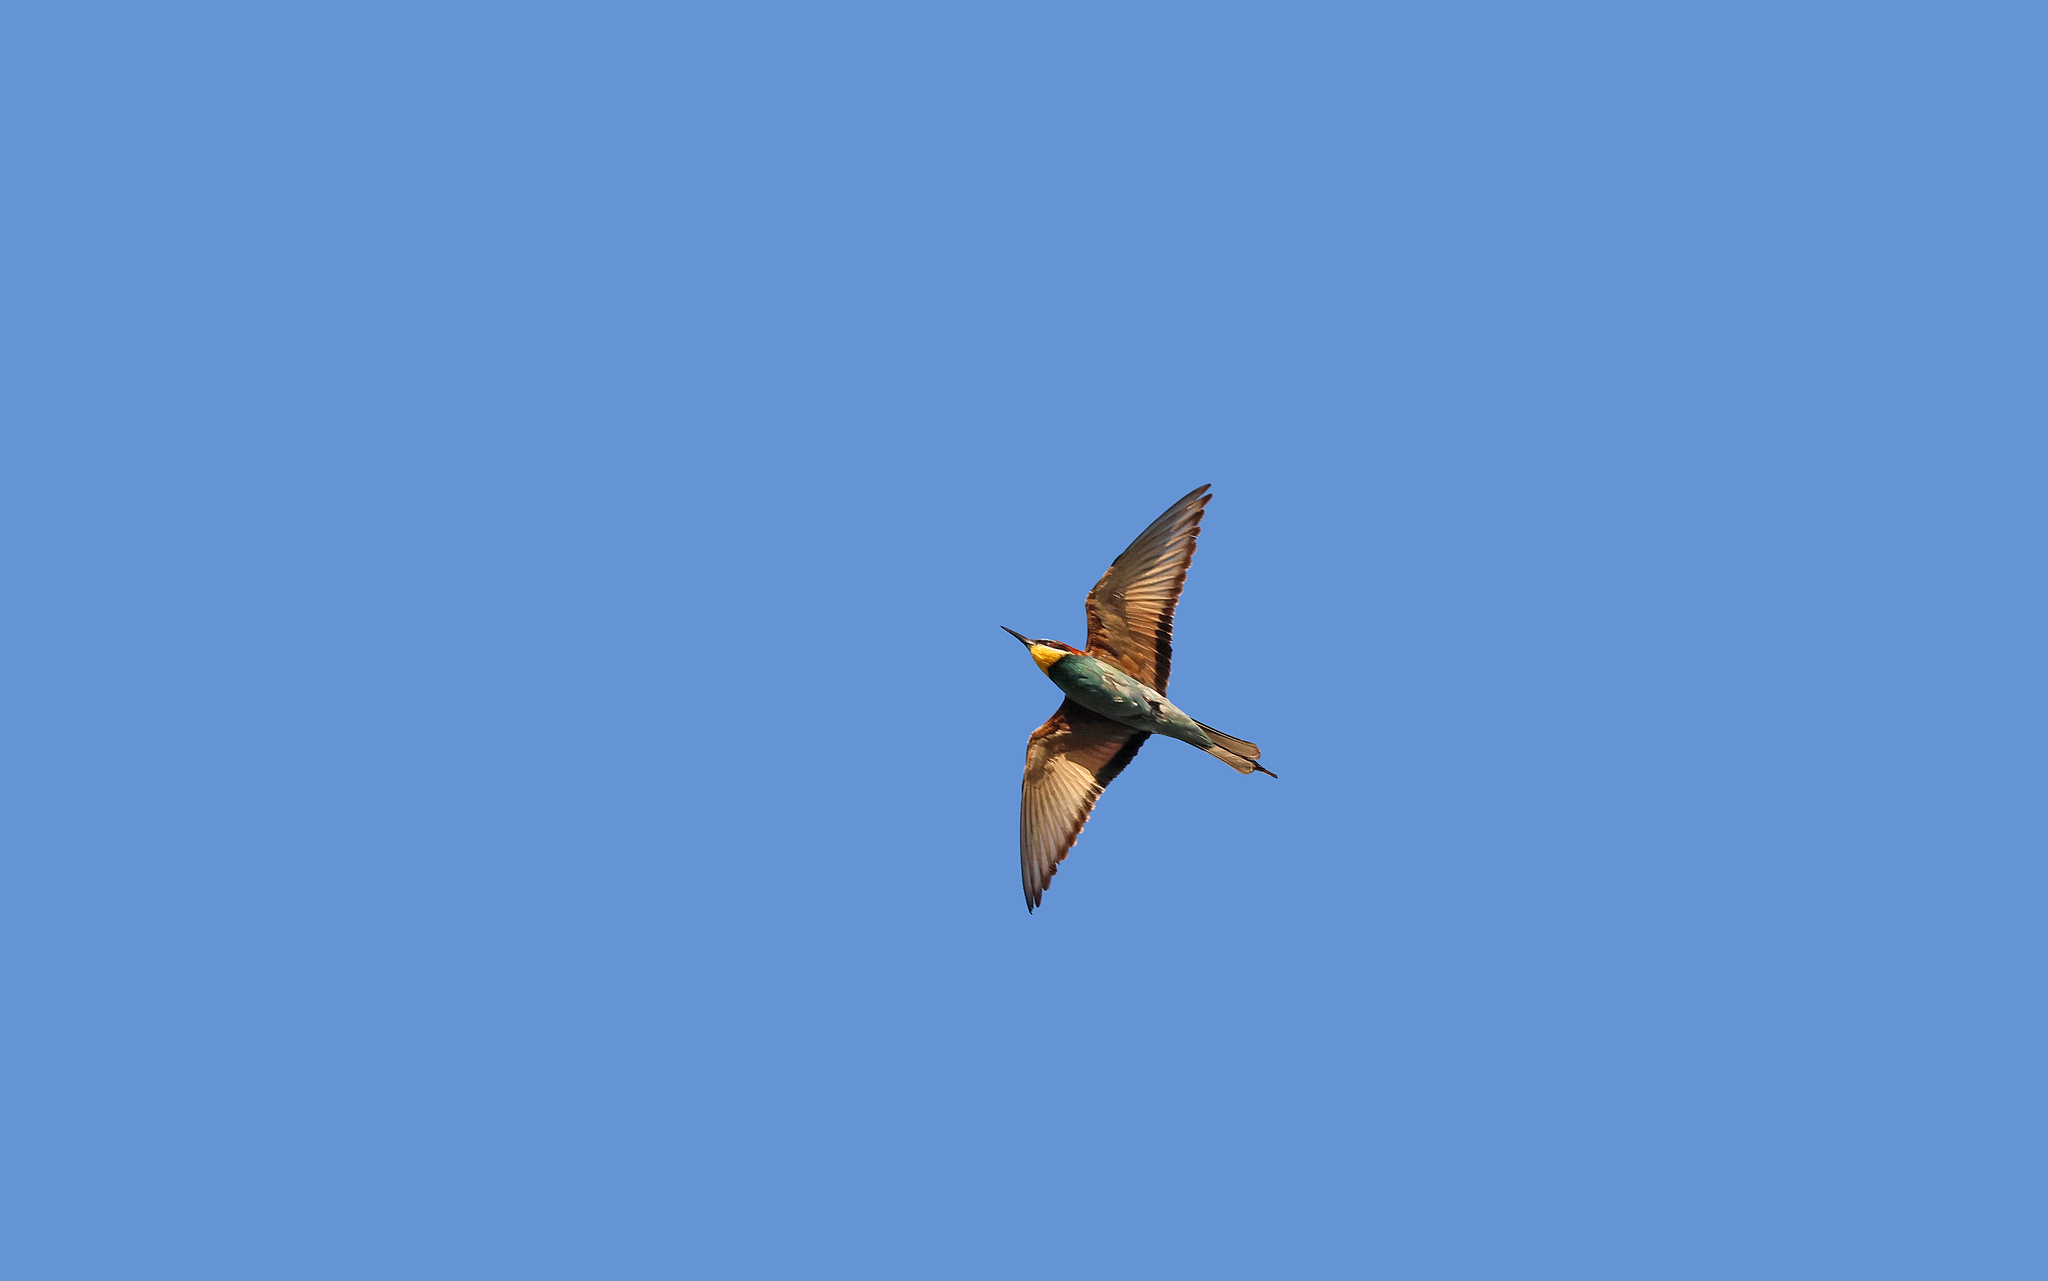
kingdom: Animalia
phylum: Chordata
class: Aves
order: Coraciiformes
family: Meropidae
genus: Merops
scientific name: Merops apiaster
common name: European bee-eater
